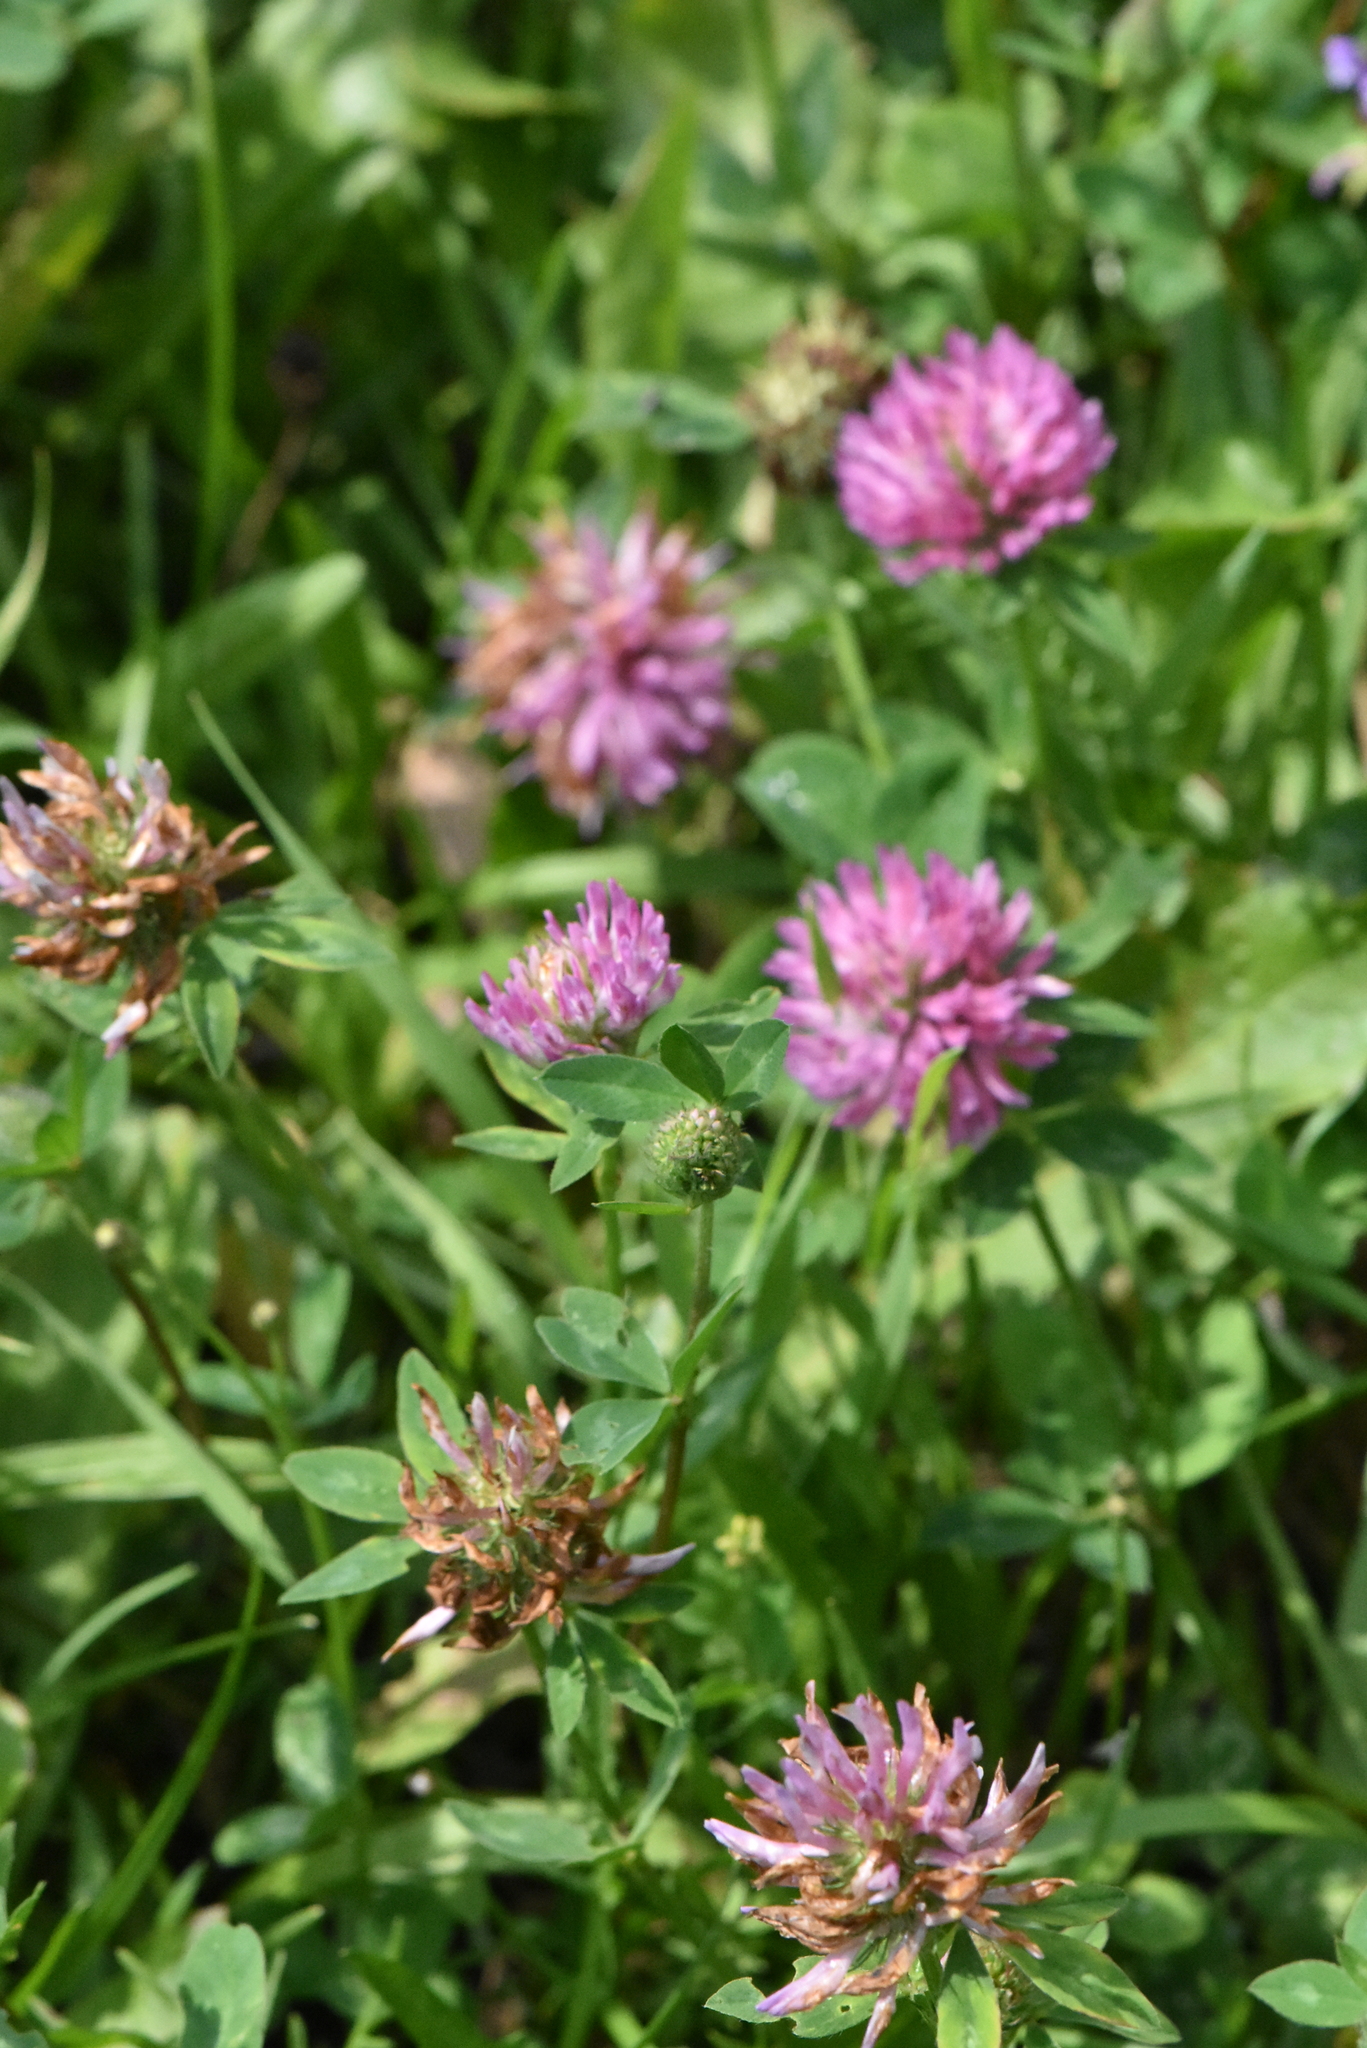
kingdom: Plantae
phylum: Tracheophyta
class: Magnoliopsida
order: Fabales
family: Fabaceae
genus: Trifolium
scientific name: Trifolium pratense
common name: Red clover
